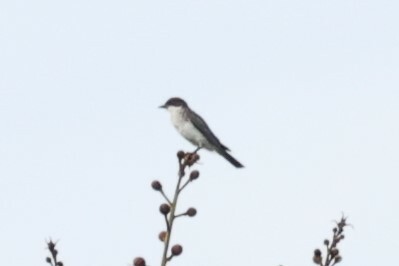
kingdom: Animalia
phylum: Chordata
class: Aves
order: Passeriformes
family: Tyrannidae
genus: Tyrannus
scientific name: Tyrannus tyrannus
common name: Eastern kingbird
